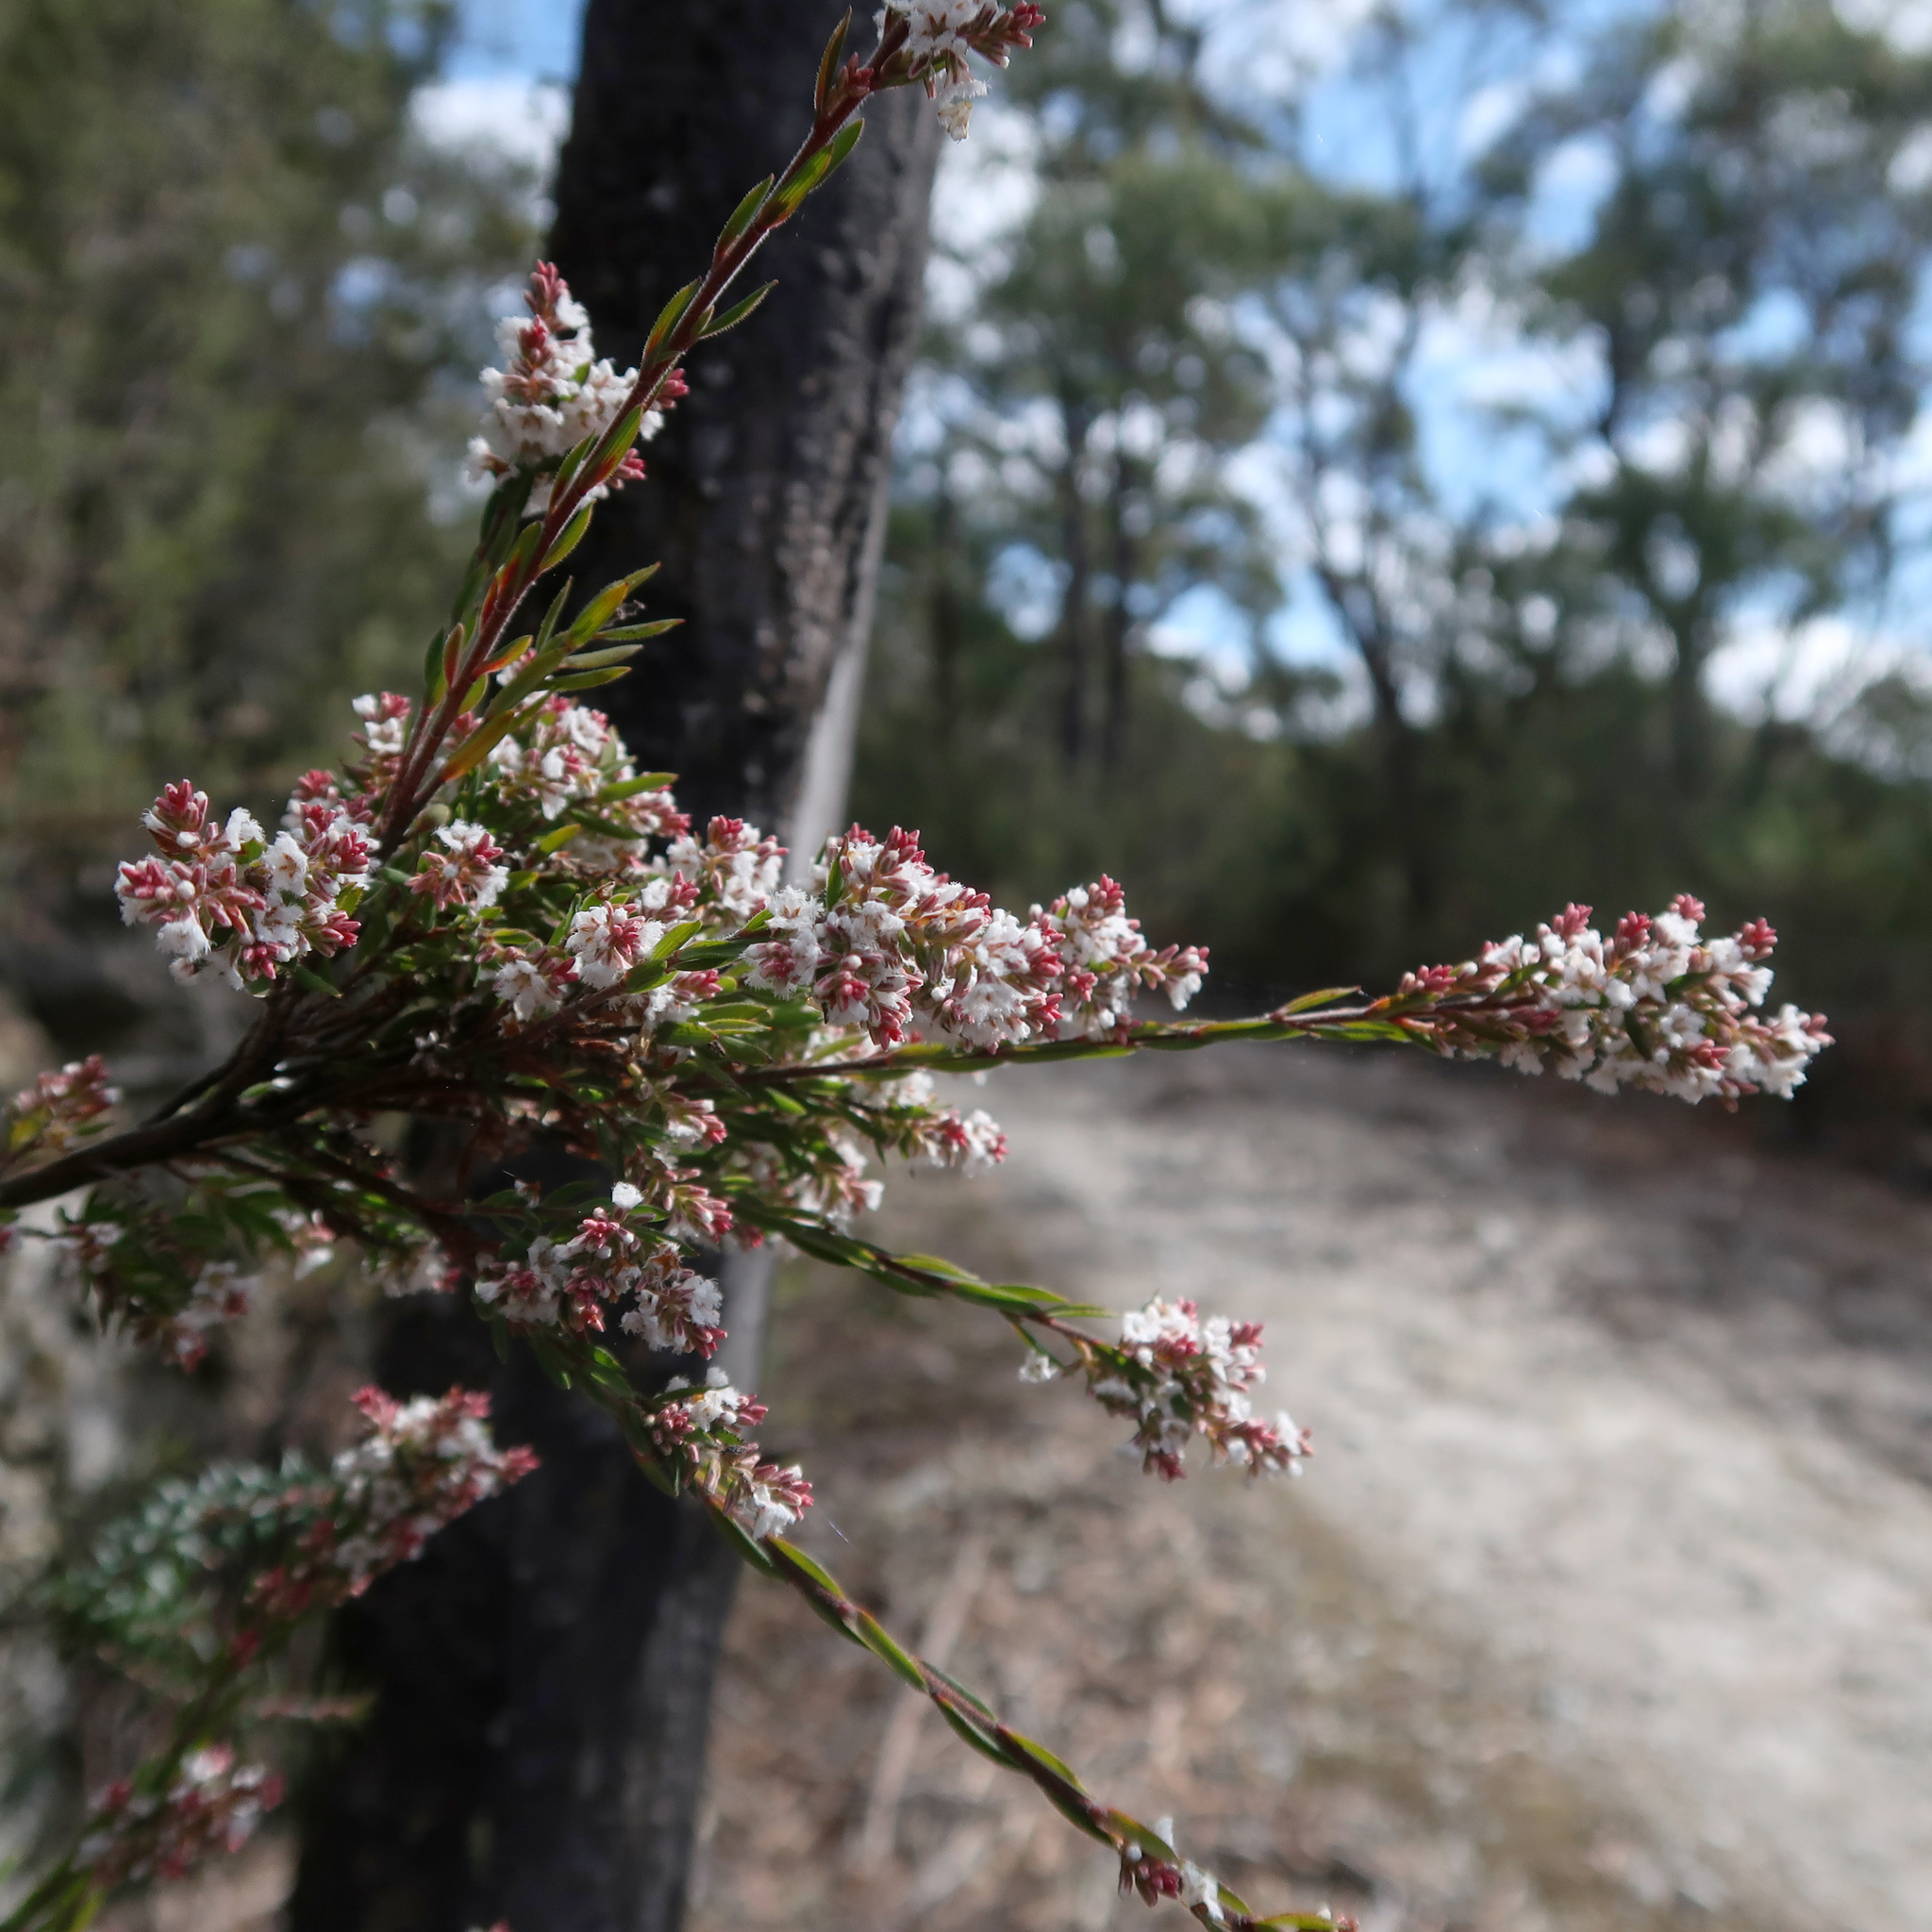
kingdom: Plantae
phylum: Tracheophyta
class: Magnoliopsida
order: Ericales
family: Ericaceae
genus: Leucopogon
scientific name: Leucopogon collinus
